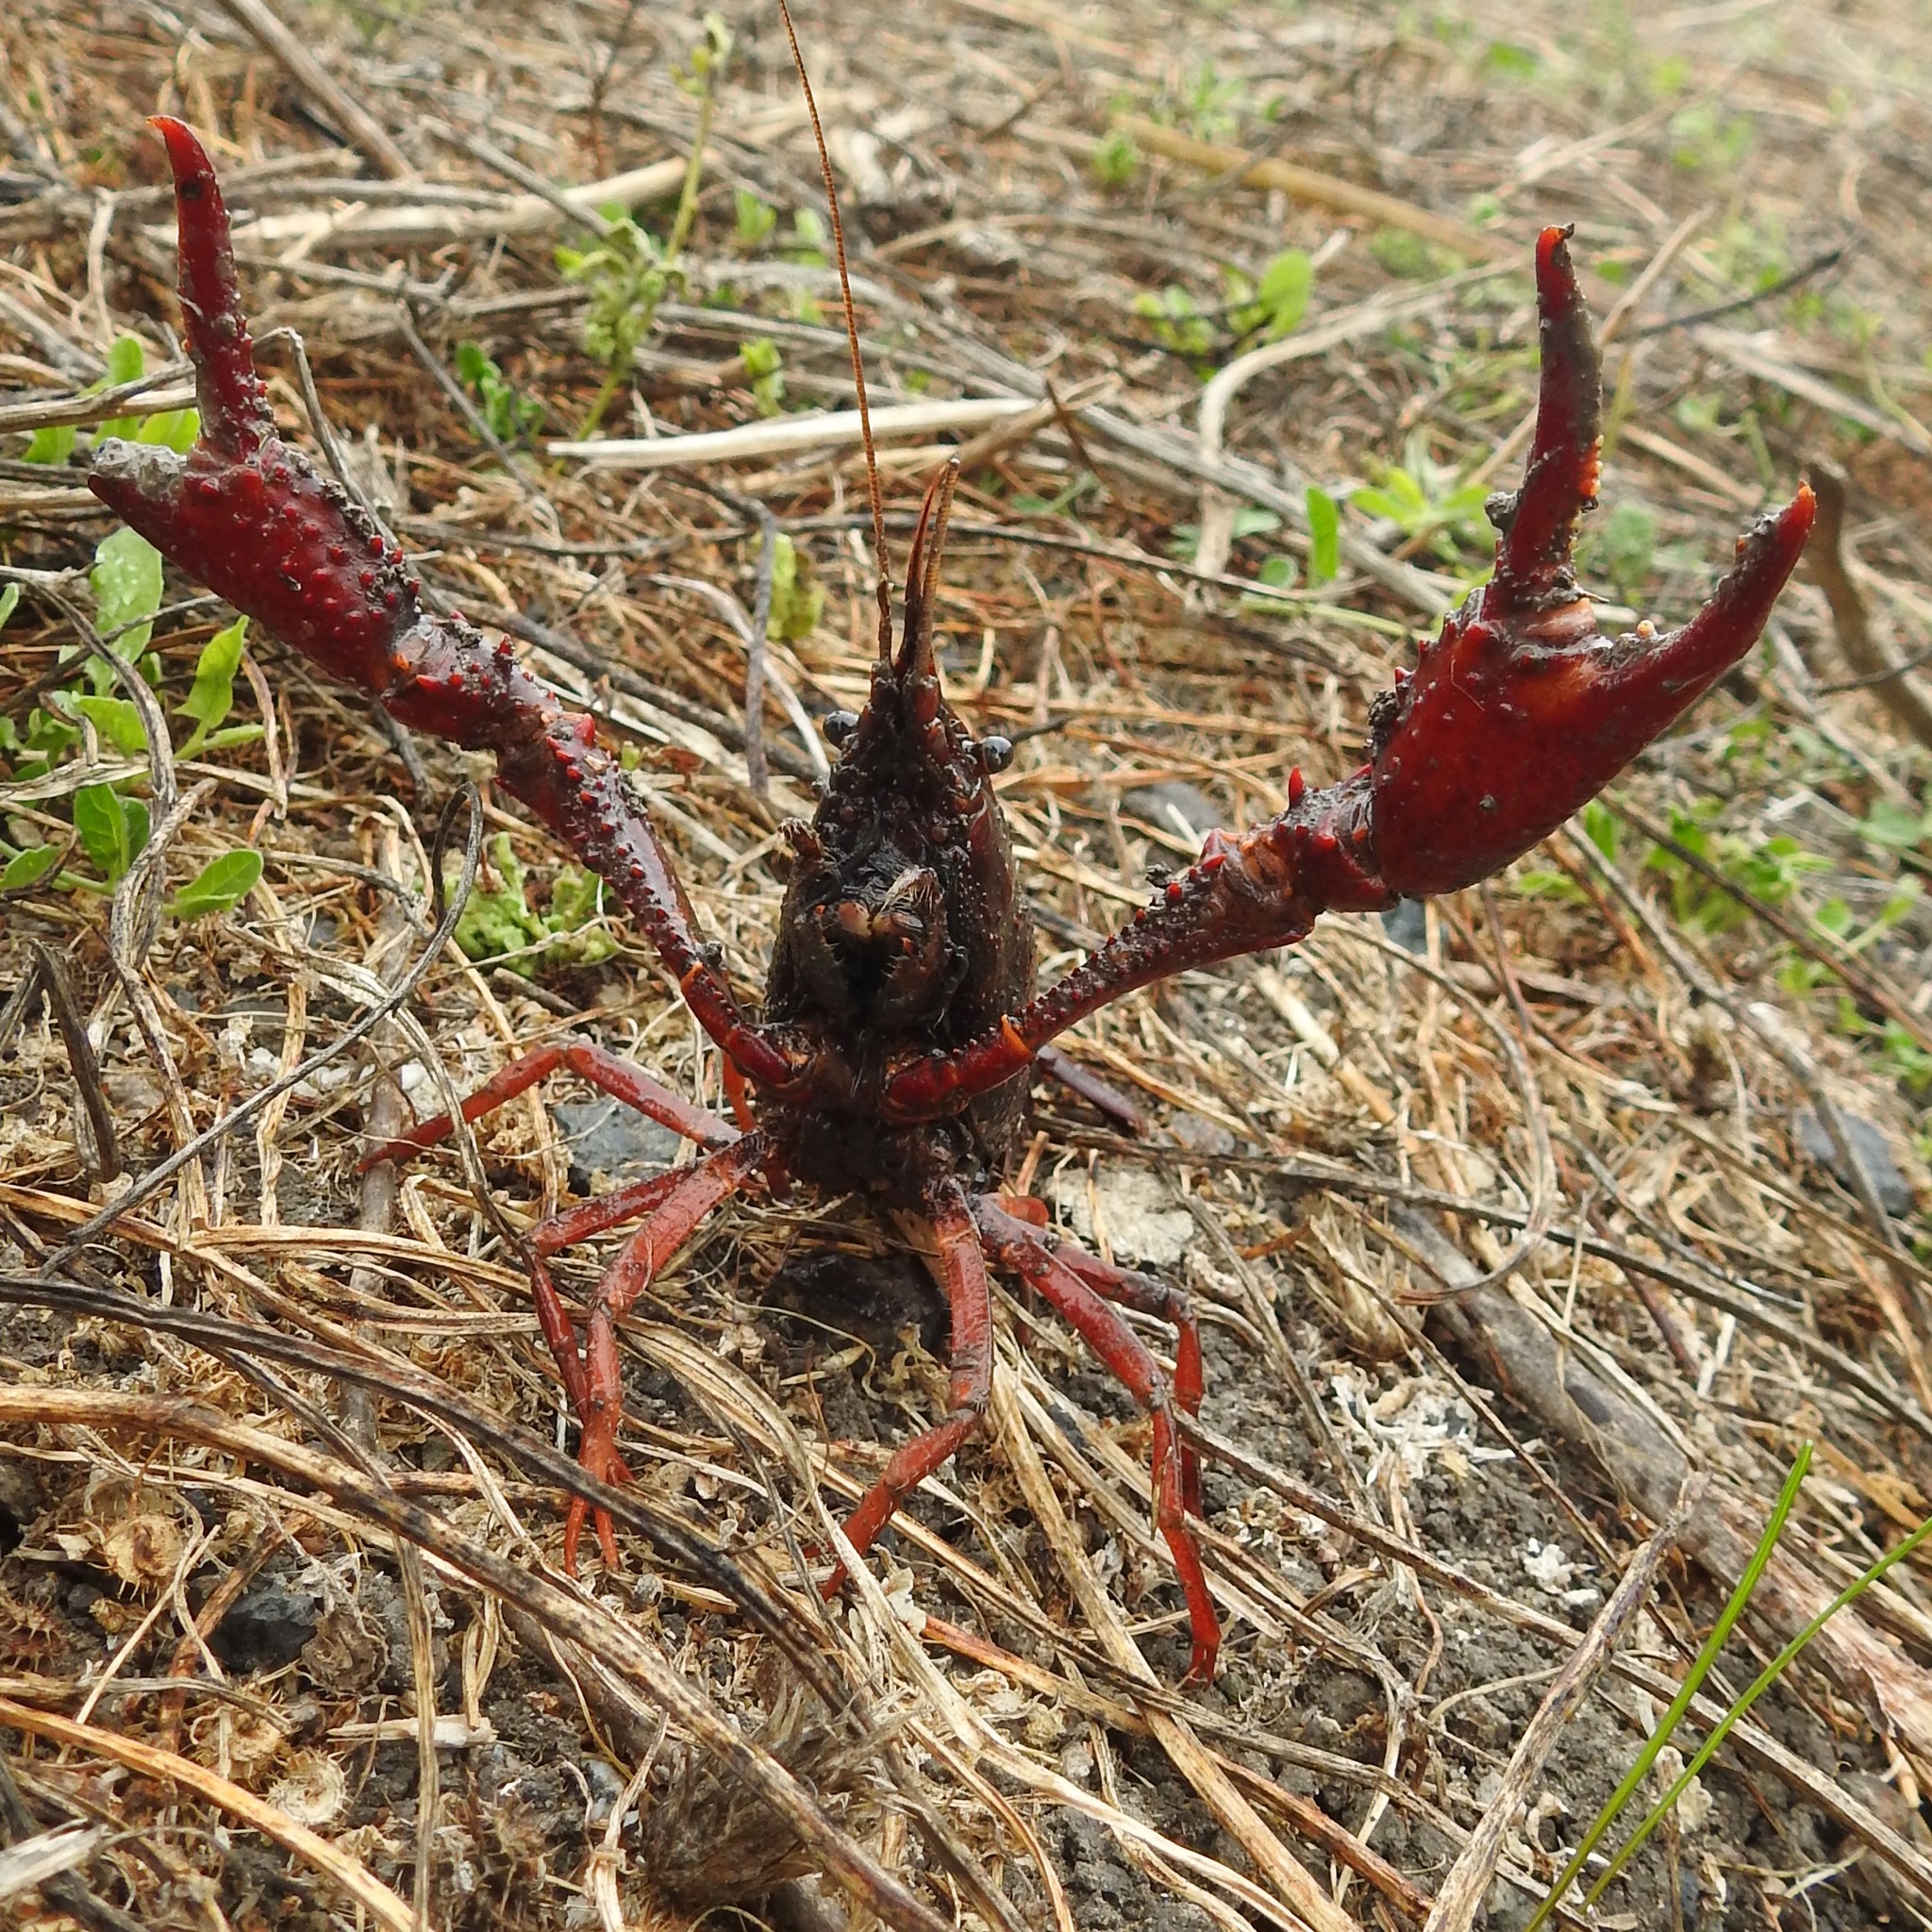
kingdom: Animalia
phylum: Arthropoda
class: Malacostraca
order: Decapoda
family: Cambaridae
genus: Procambarus
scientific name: Procambarus clarkii
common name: Red swamp crayfish
